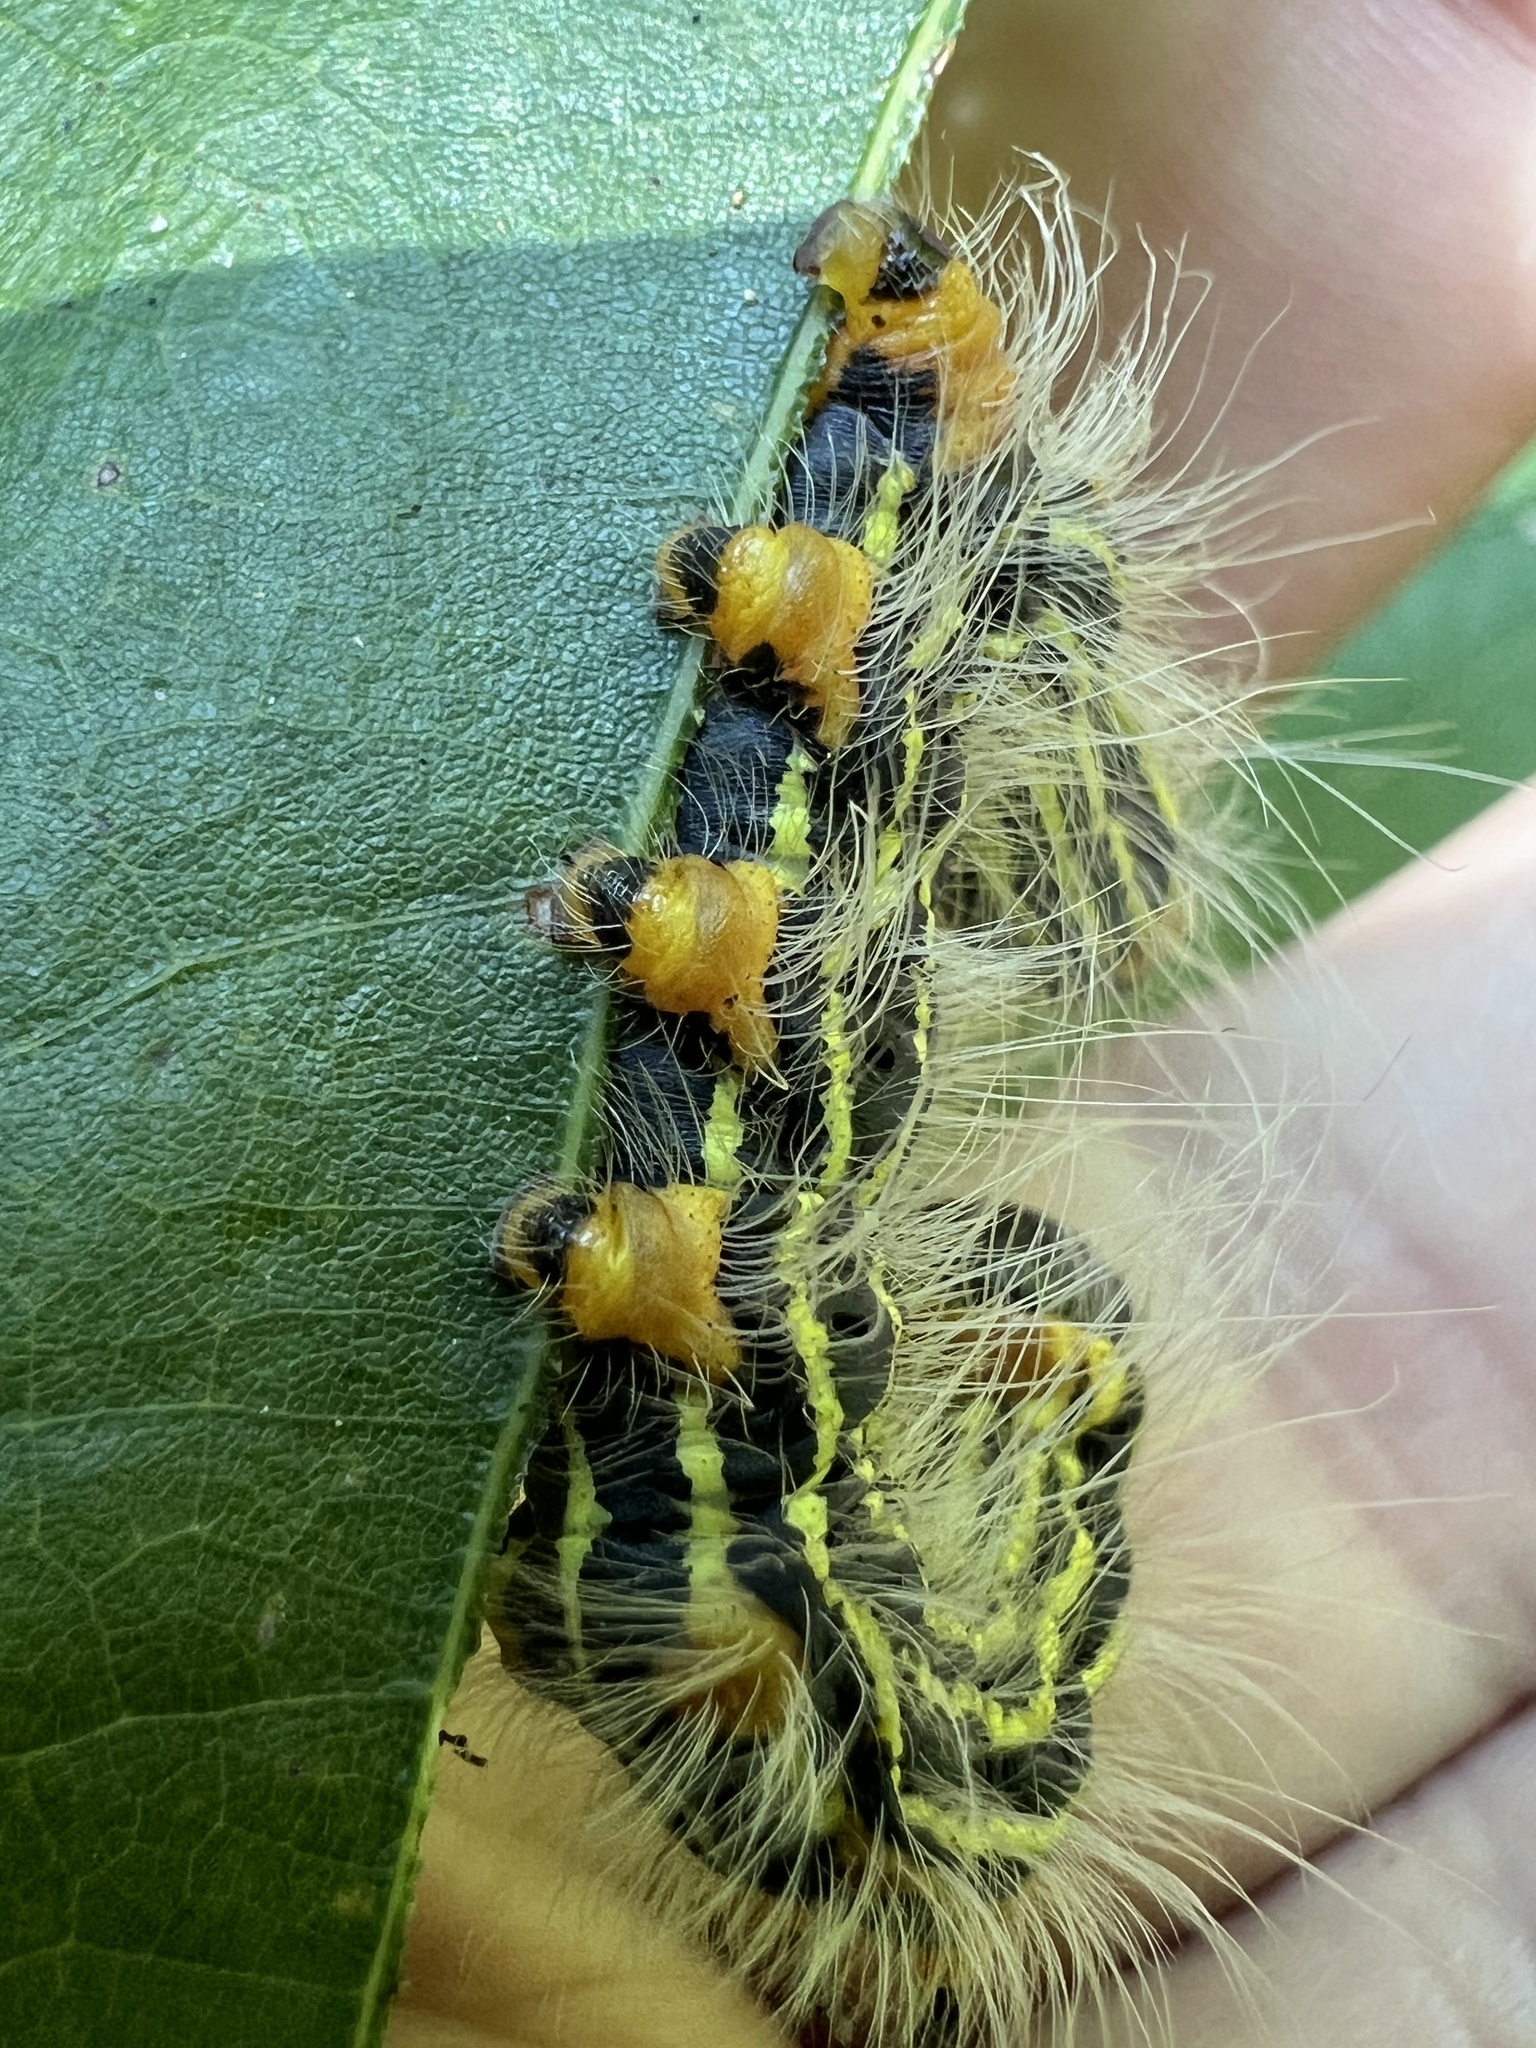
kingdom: Animalia
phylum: Arthropoda
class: Insecta
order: Lepidoptera
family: Notodontidae
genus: Datana
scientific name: Datana ministra
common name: Yellow-necked caterpillar moth
